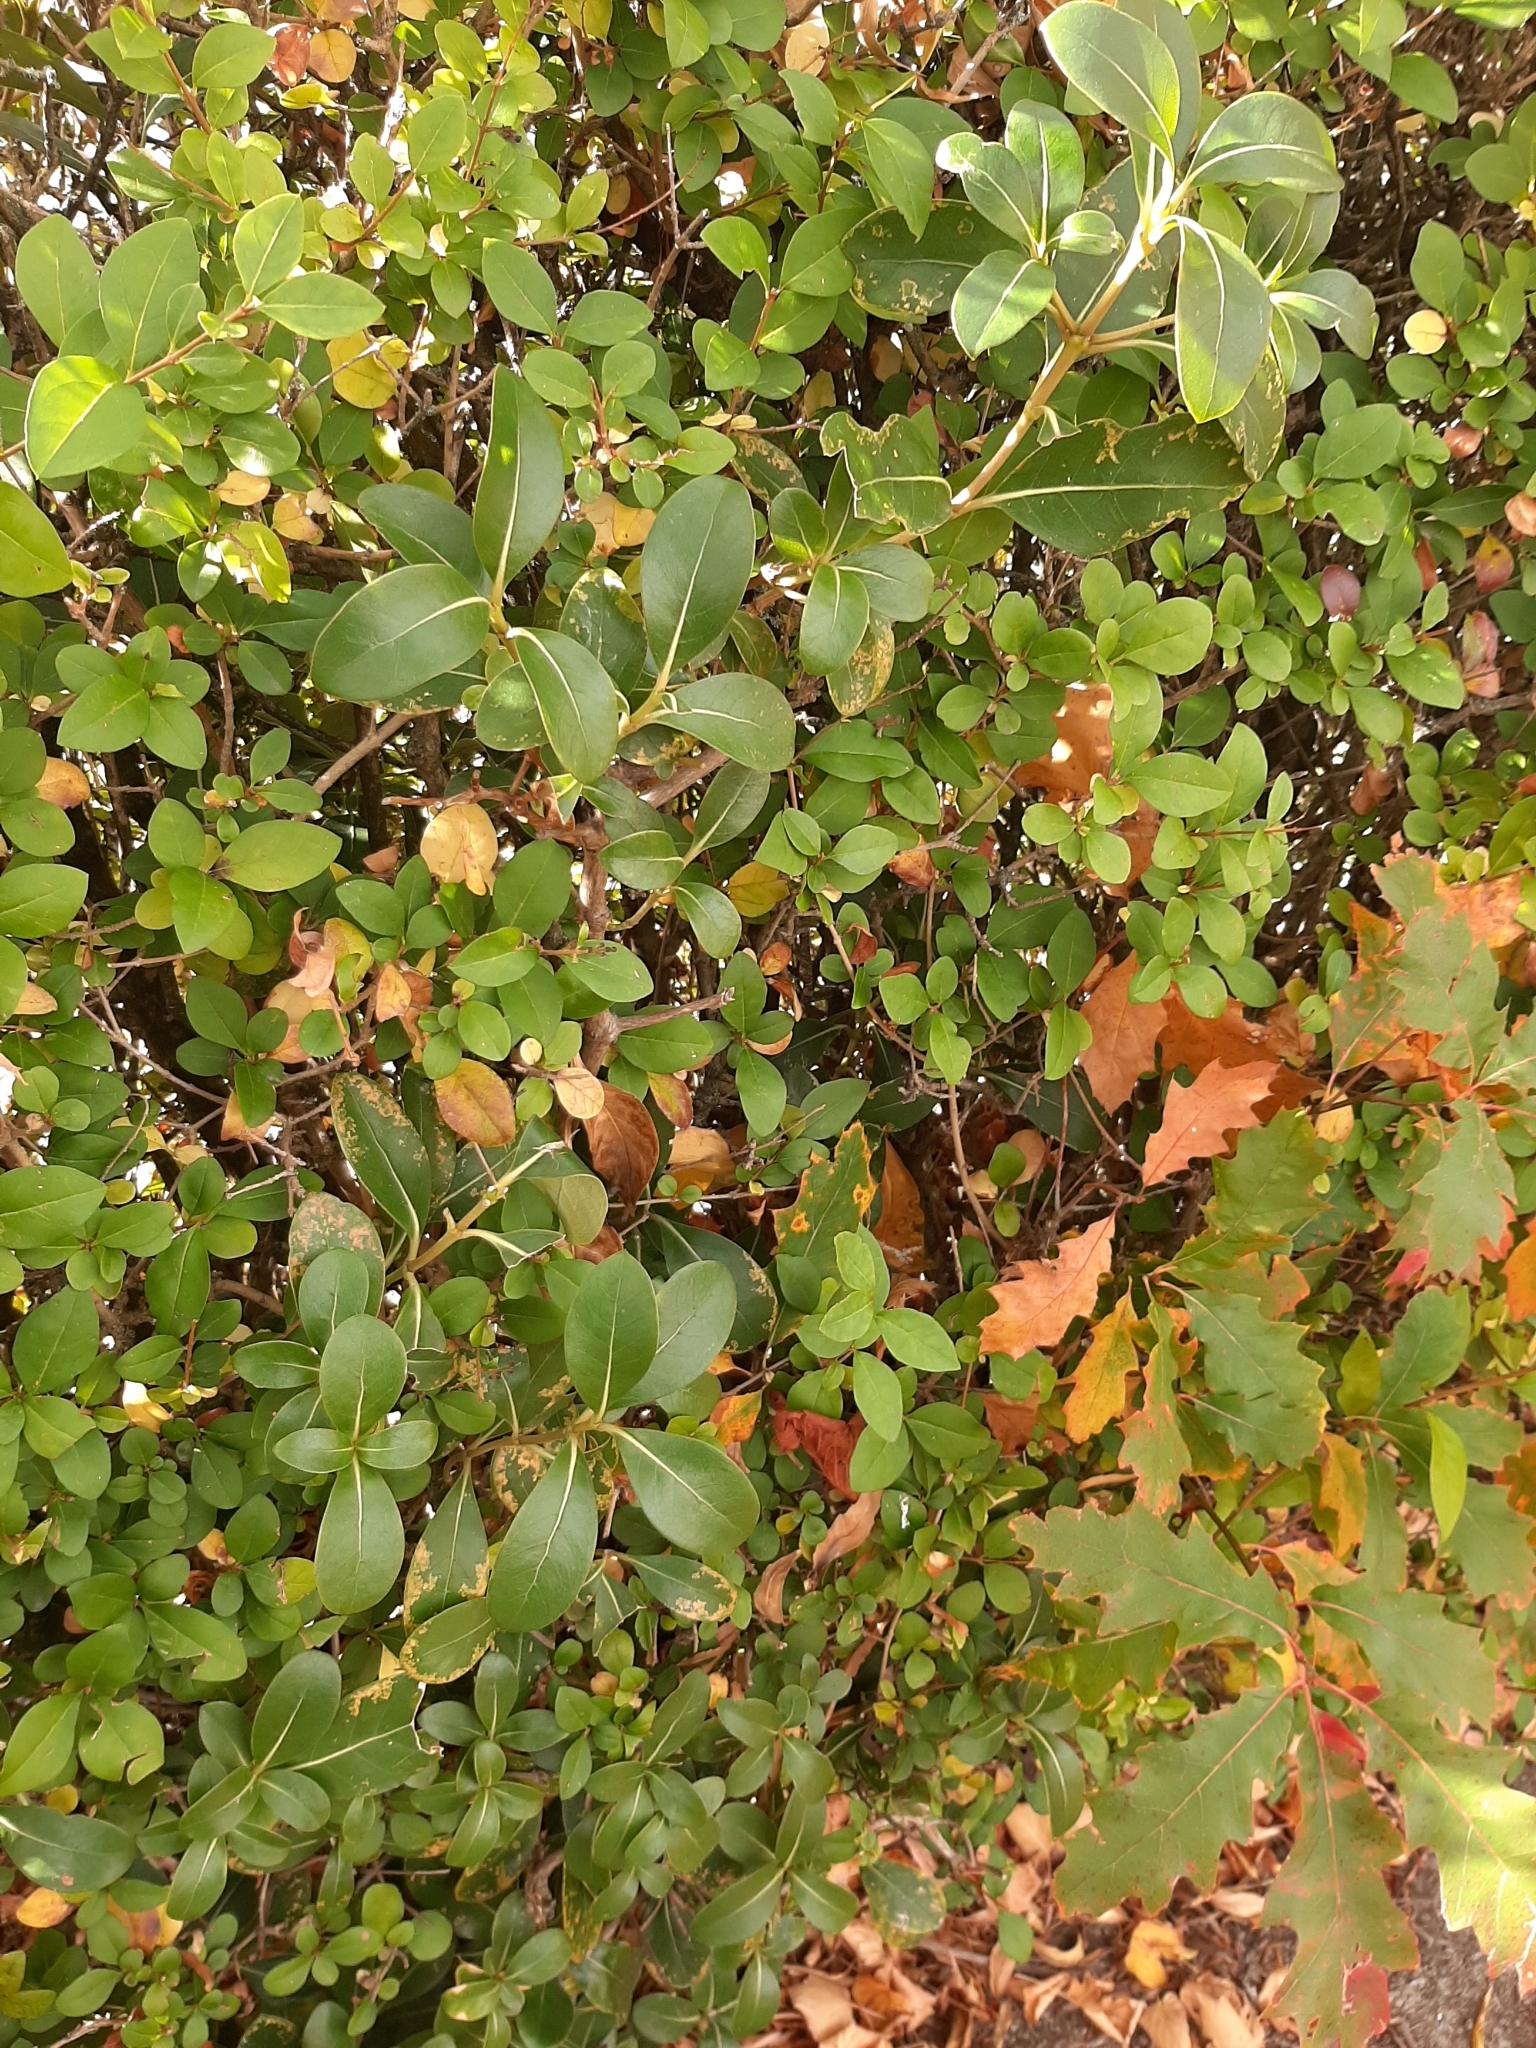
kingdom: Plantae
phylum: Tracheophyta
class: Magnoliopsida
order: Gentianales
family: Rubiaceae
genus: Coprosma
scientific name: Coprosma lucida
